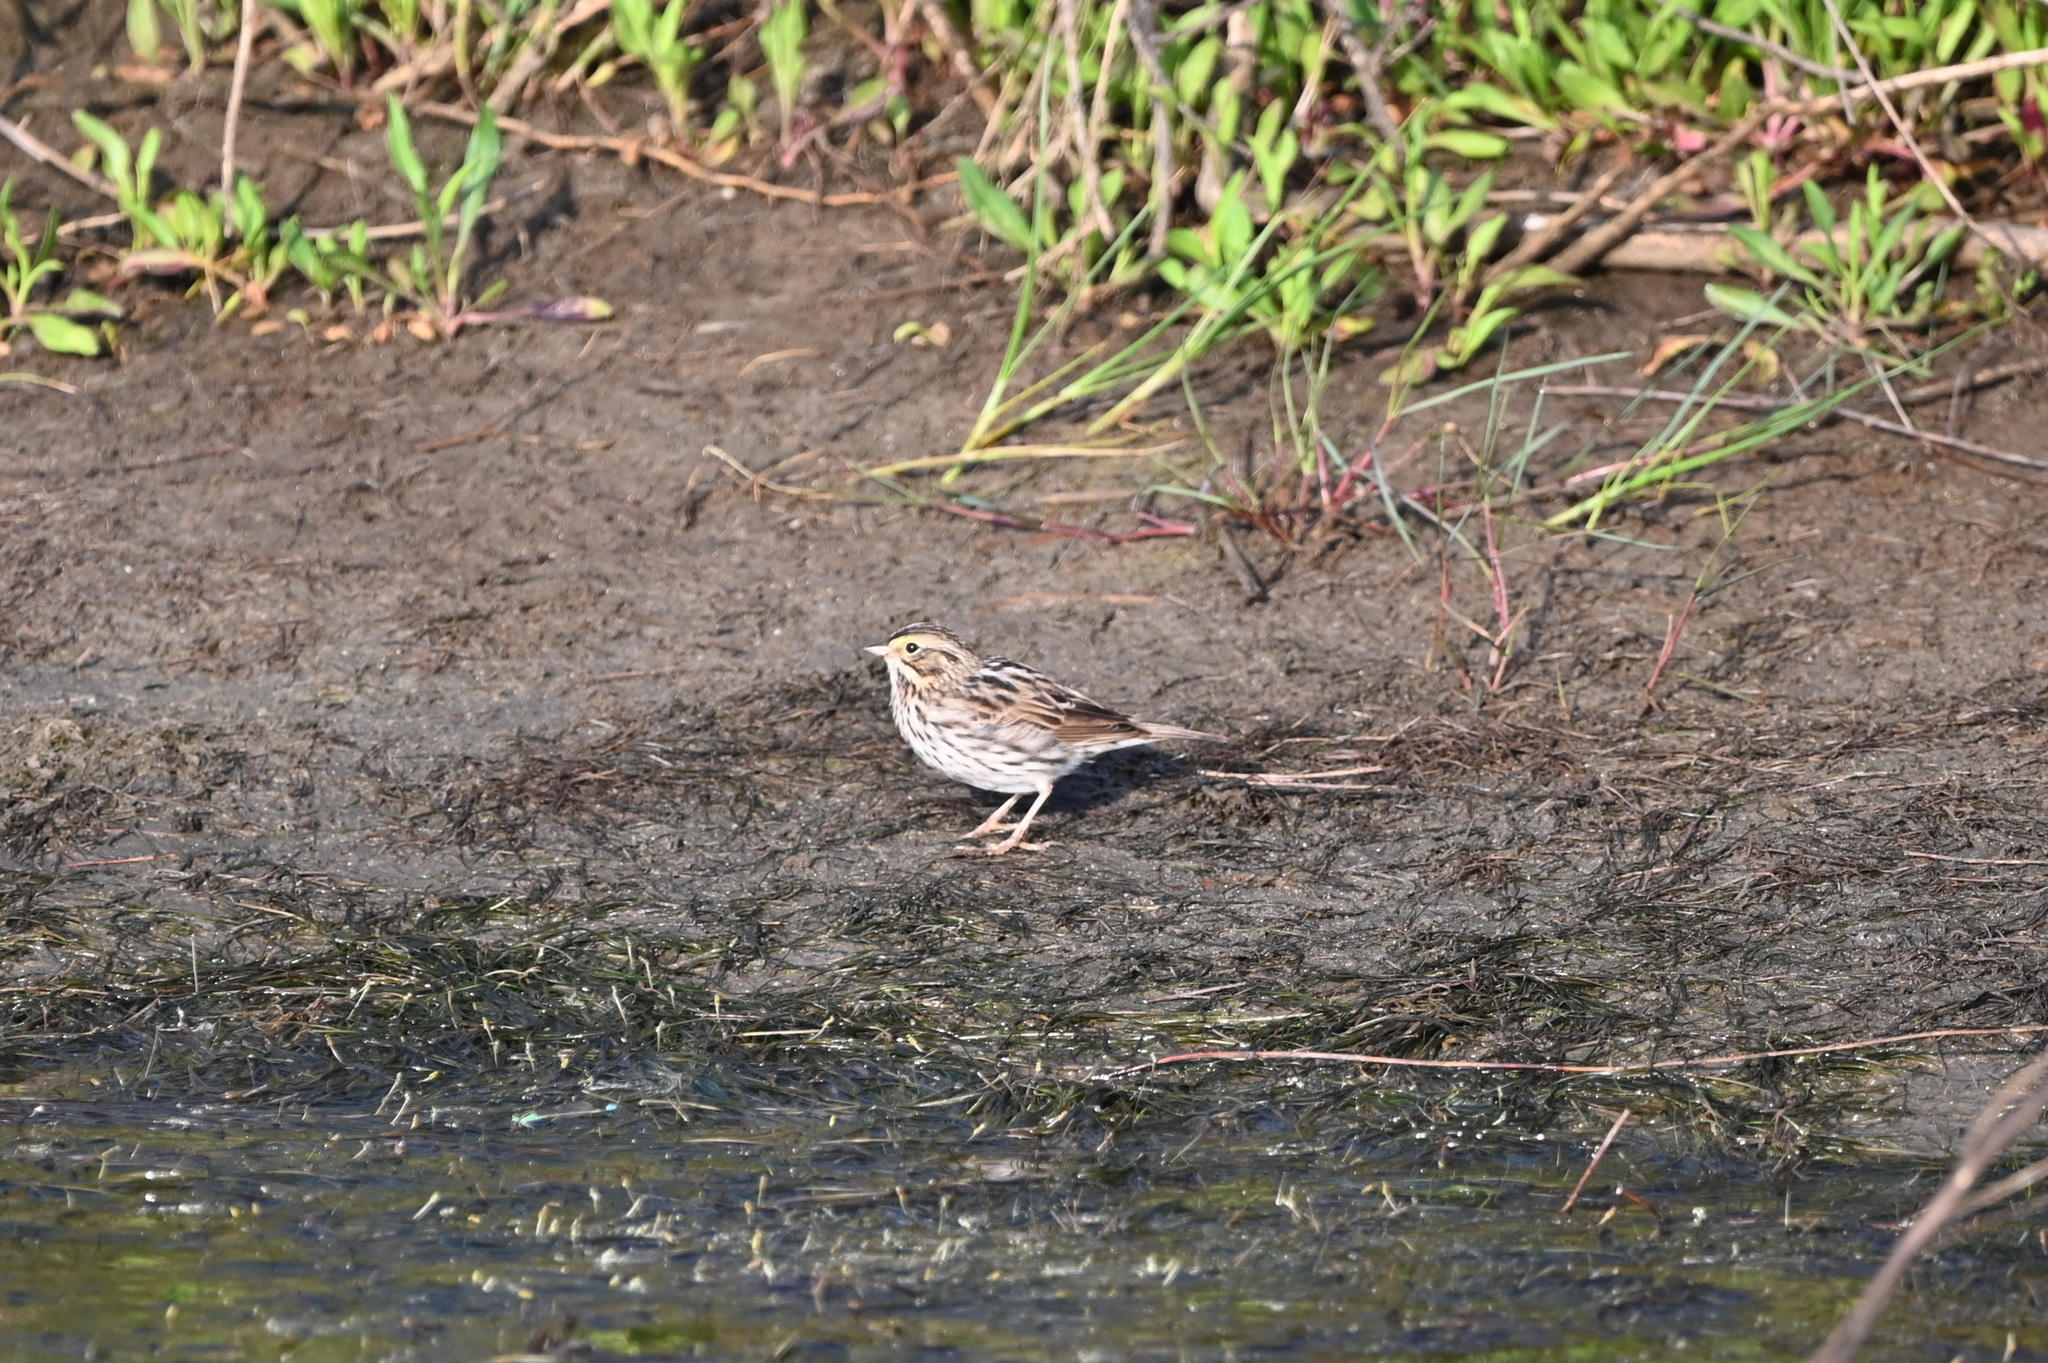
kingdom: Animalia
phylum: Chordata
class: Aves
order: Passeriformes
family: Passerellidae
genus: Passerculus
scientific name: Passerculus sandwichensis
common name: Savannah sparrow
